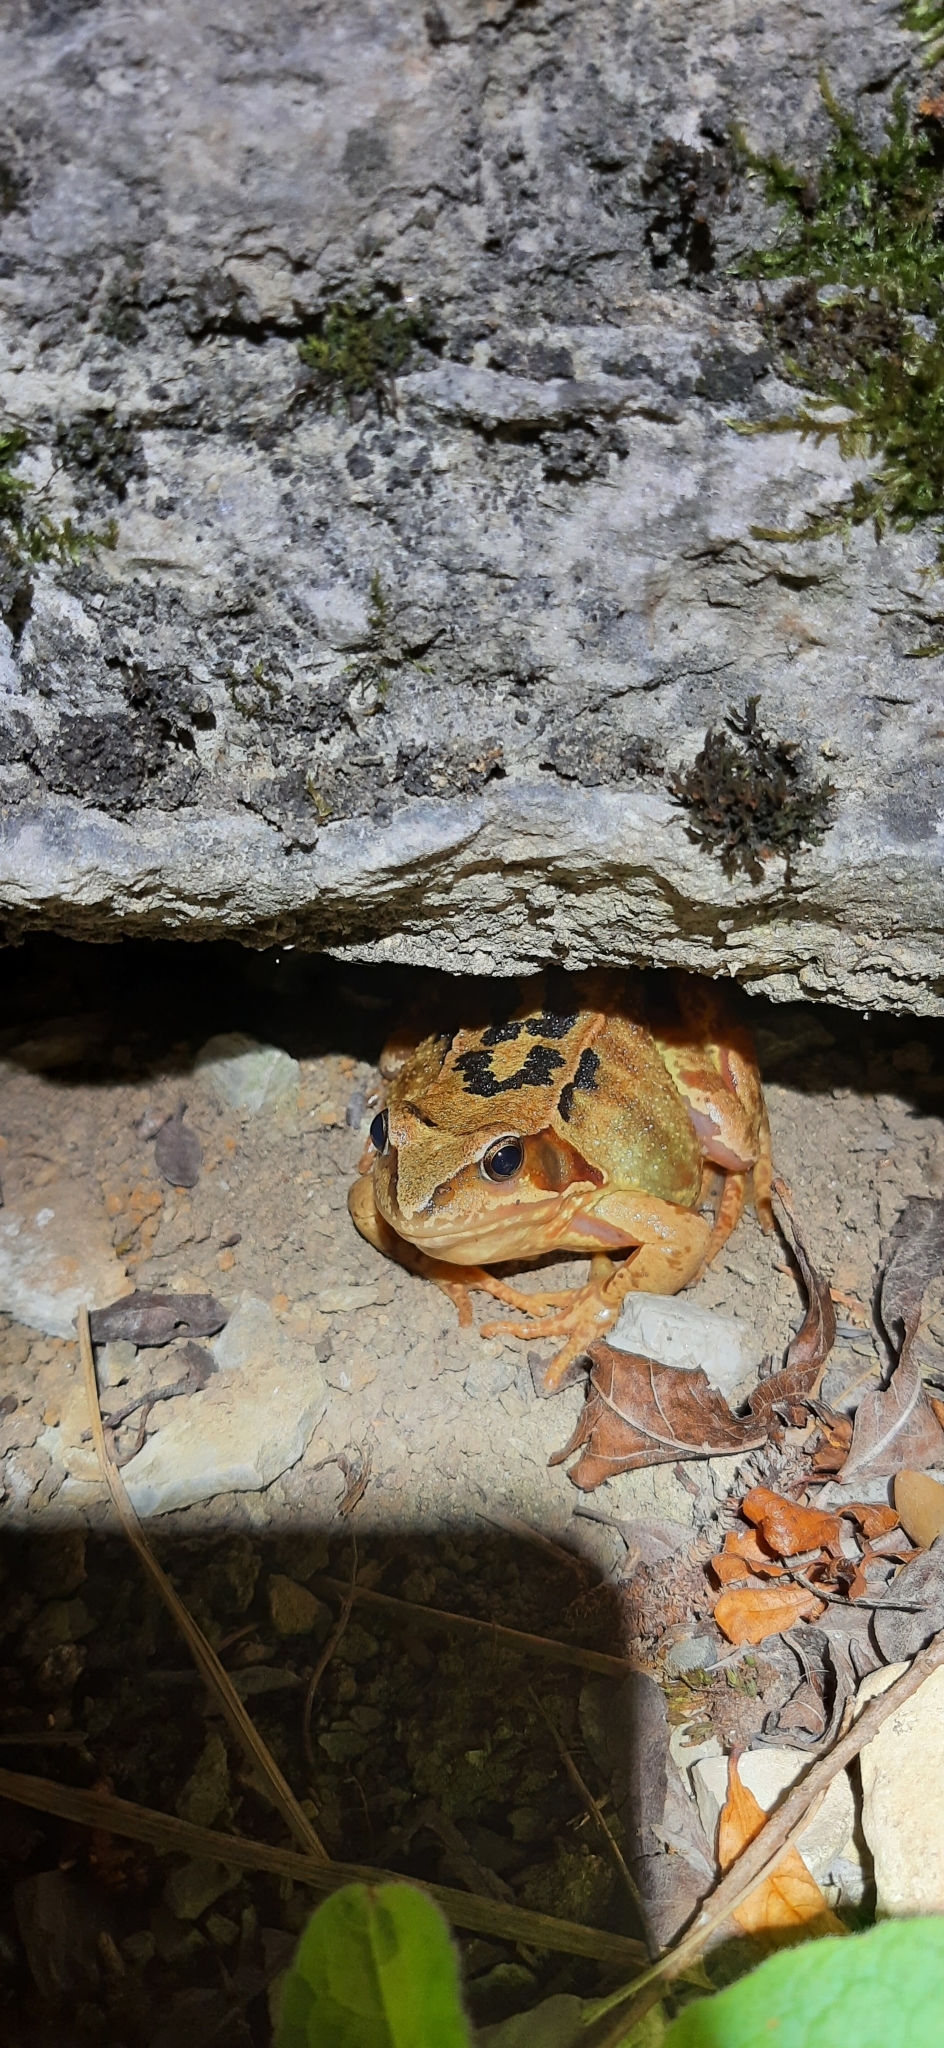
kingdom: Animalia
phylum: Chordata
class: Amphibia
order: Anura
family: Ranidae
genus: Rana
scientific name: Rana temporaria
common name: Common frog
